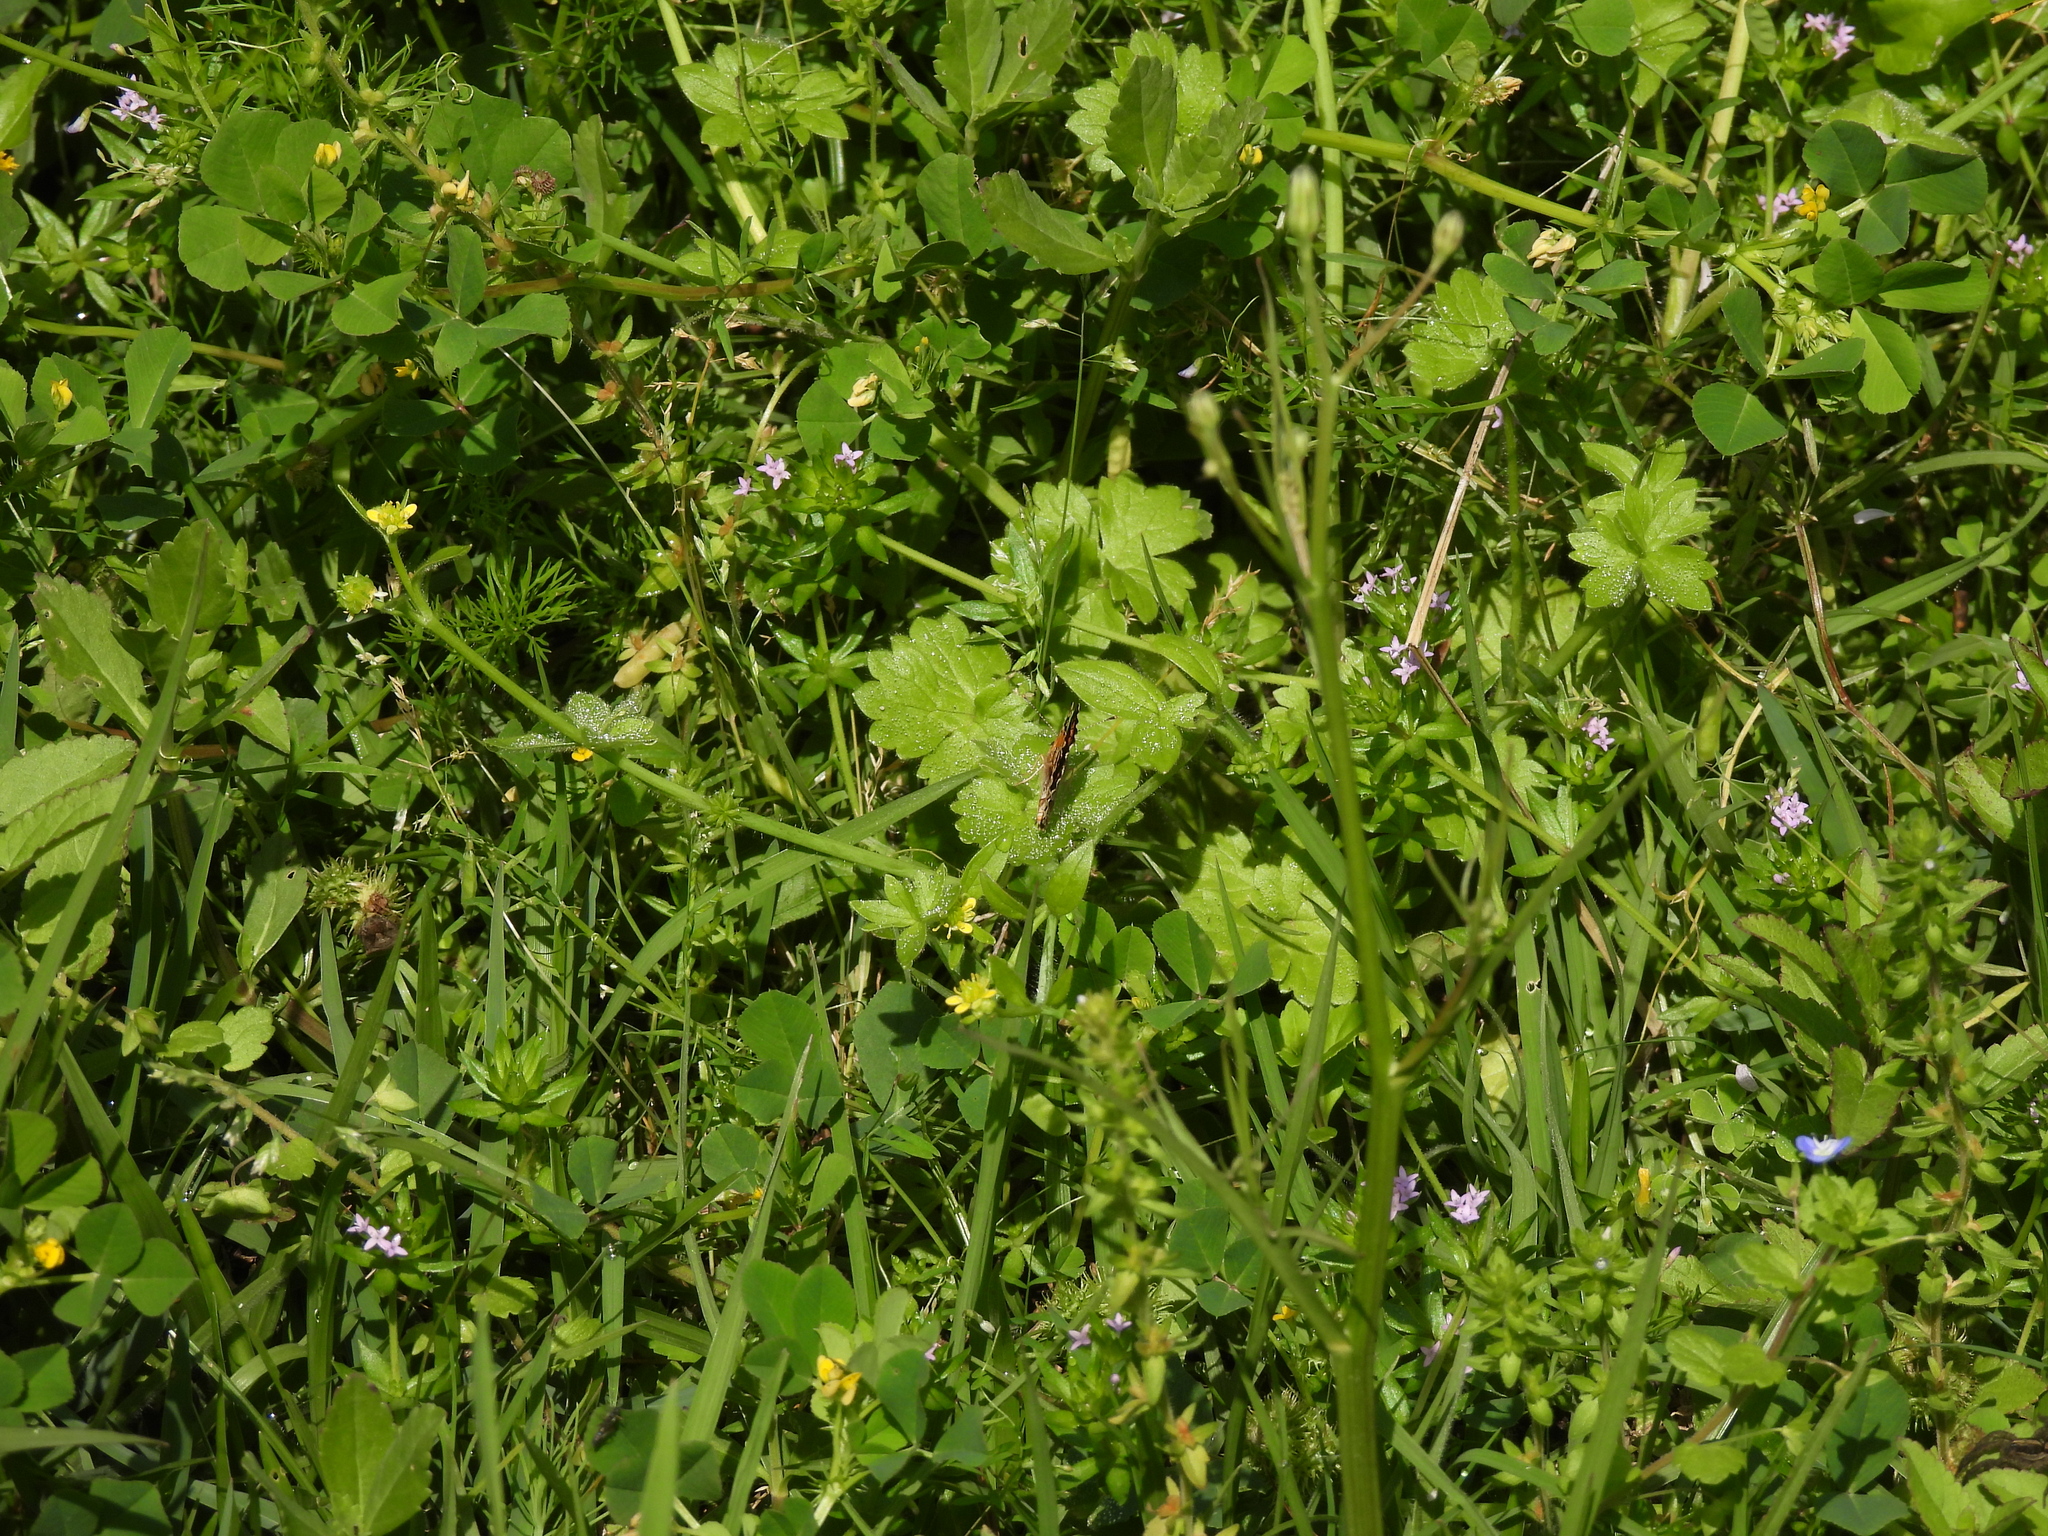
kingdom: Animalia
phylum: Arthropoda
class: Insecta
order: Lepidoptera
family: Nymphalidae
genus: Phyciodes
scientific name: Phyciodes phaon
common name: Phaon crescent
